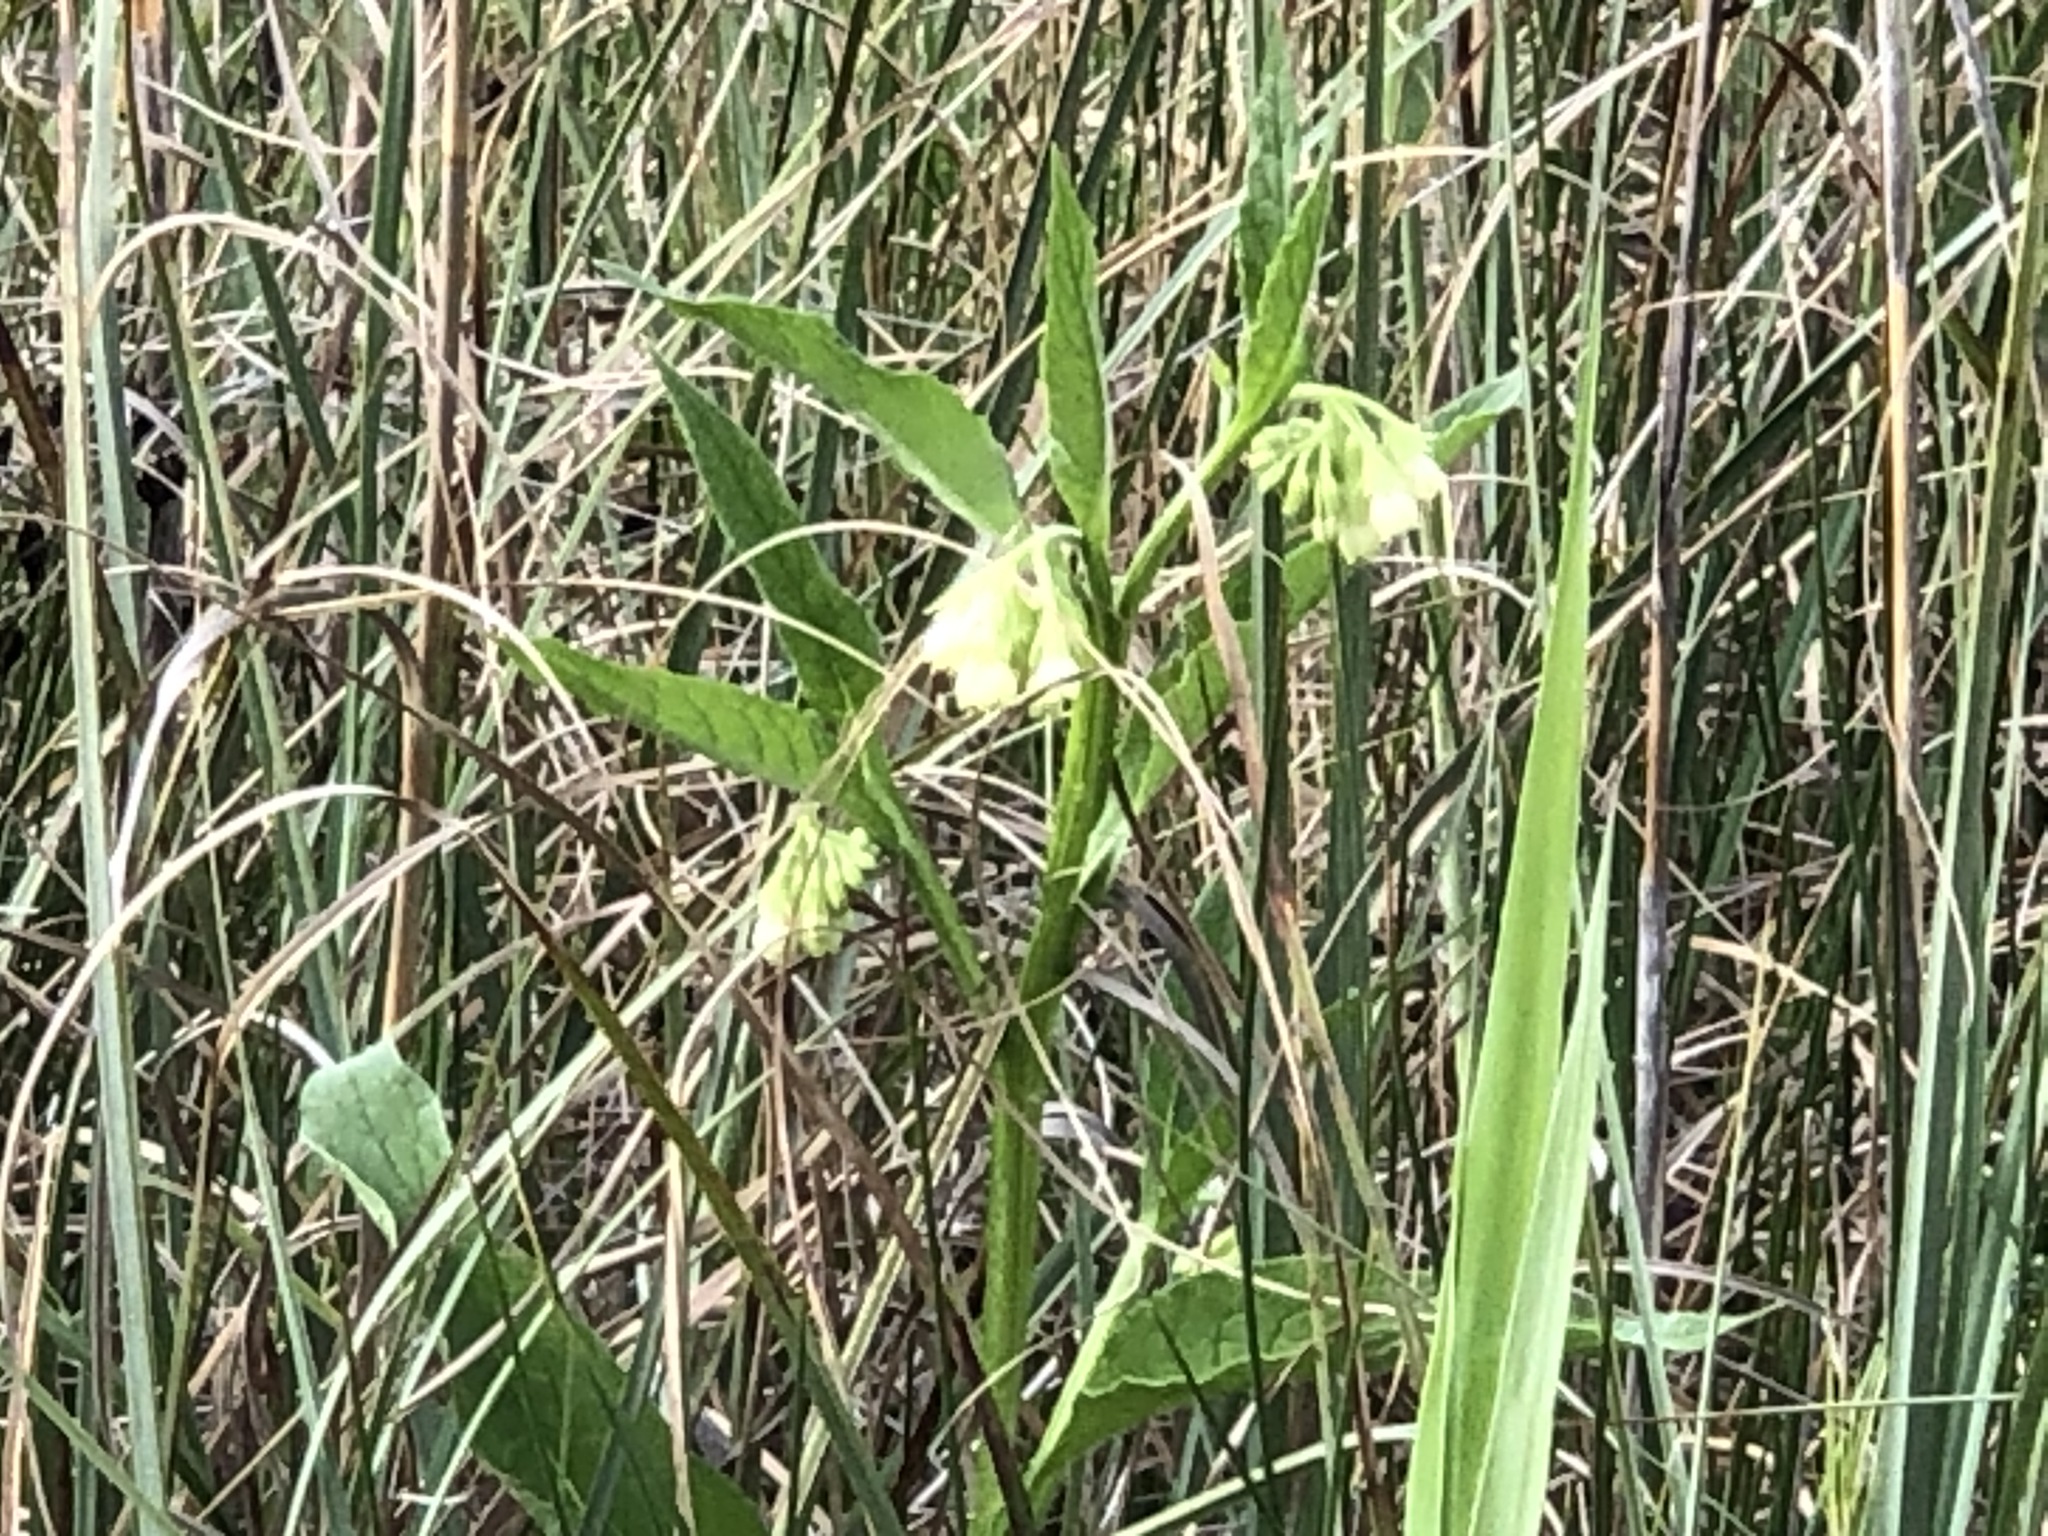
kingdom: Plantae
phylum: Tracheophyta
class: Magnoliopsida
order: Boraginales
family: Boraginaceae
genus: Symphytum
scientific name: Symphytum officinale
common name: Common comfrey
